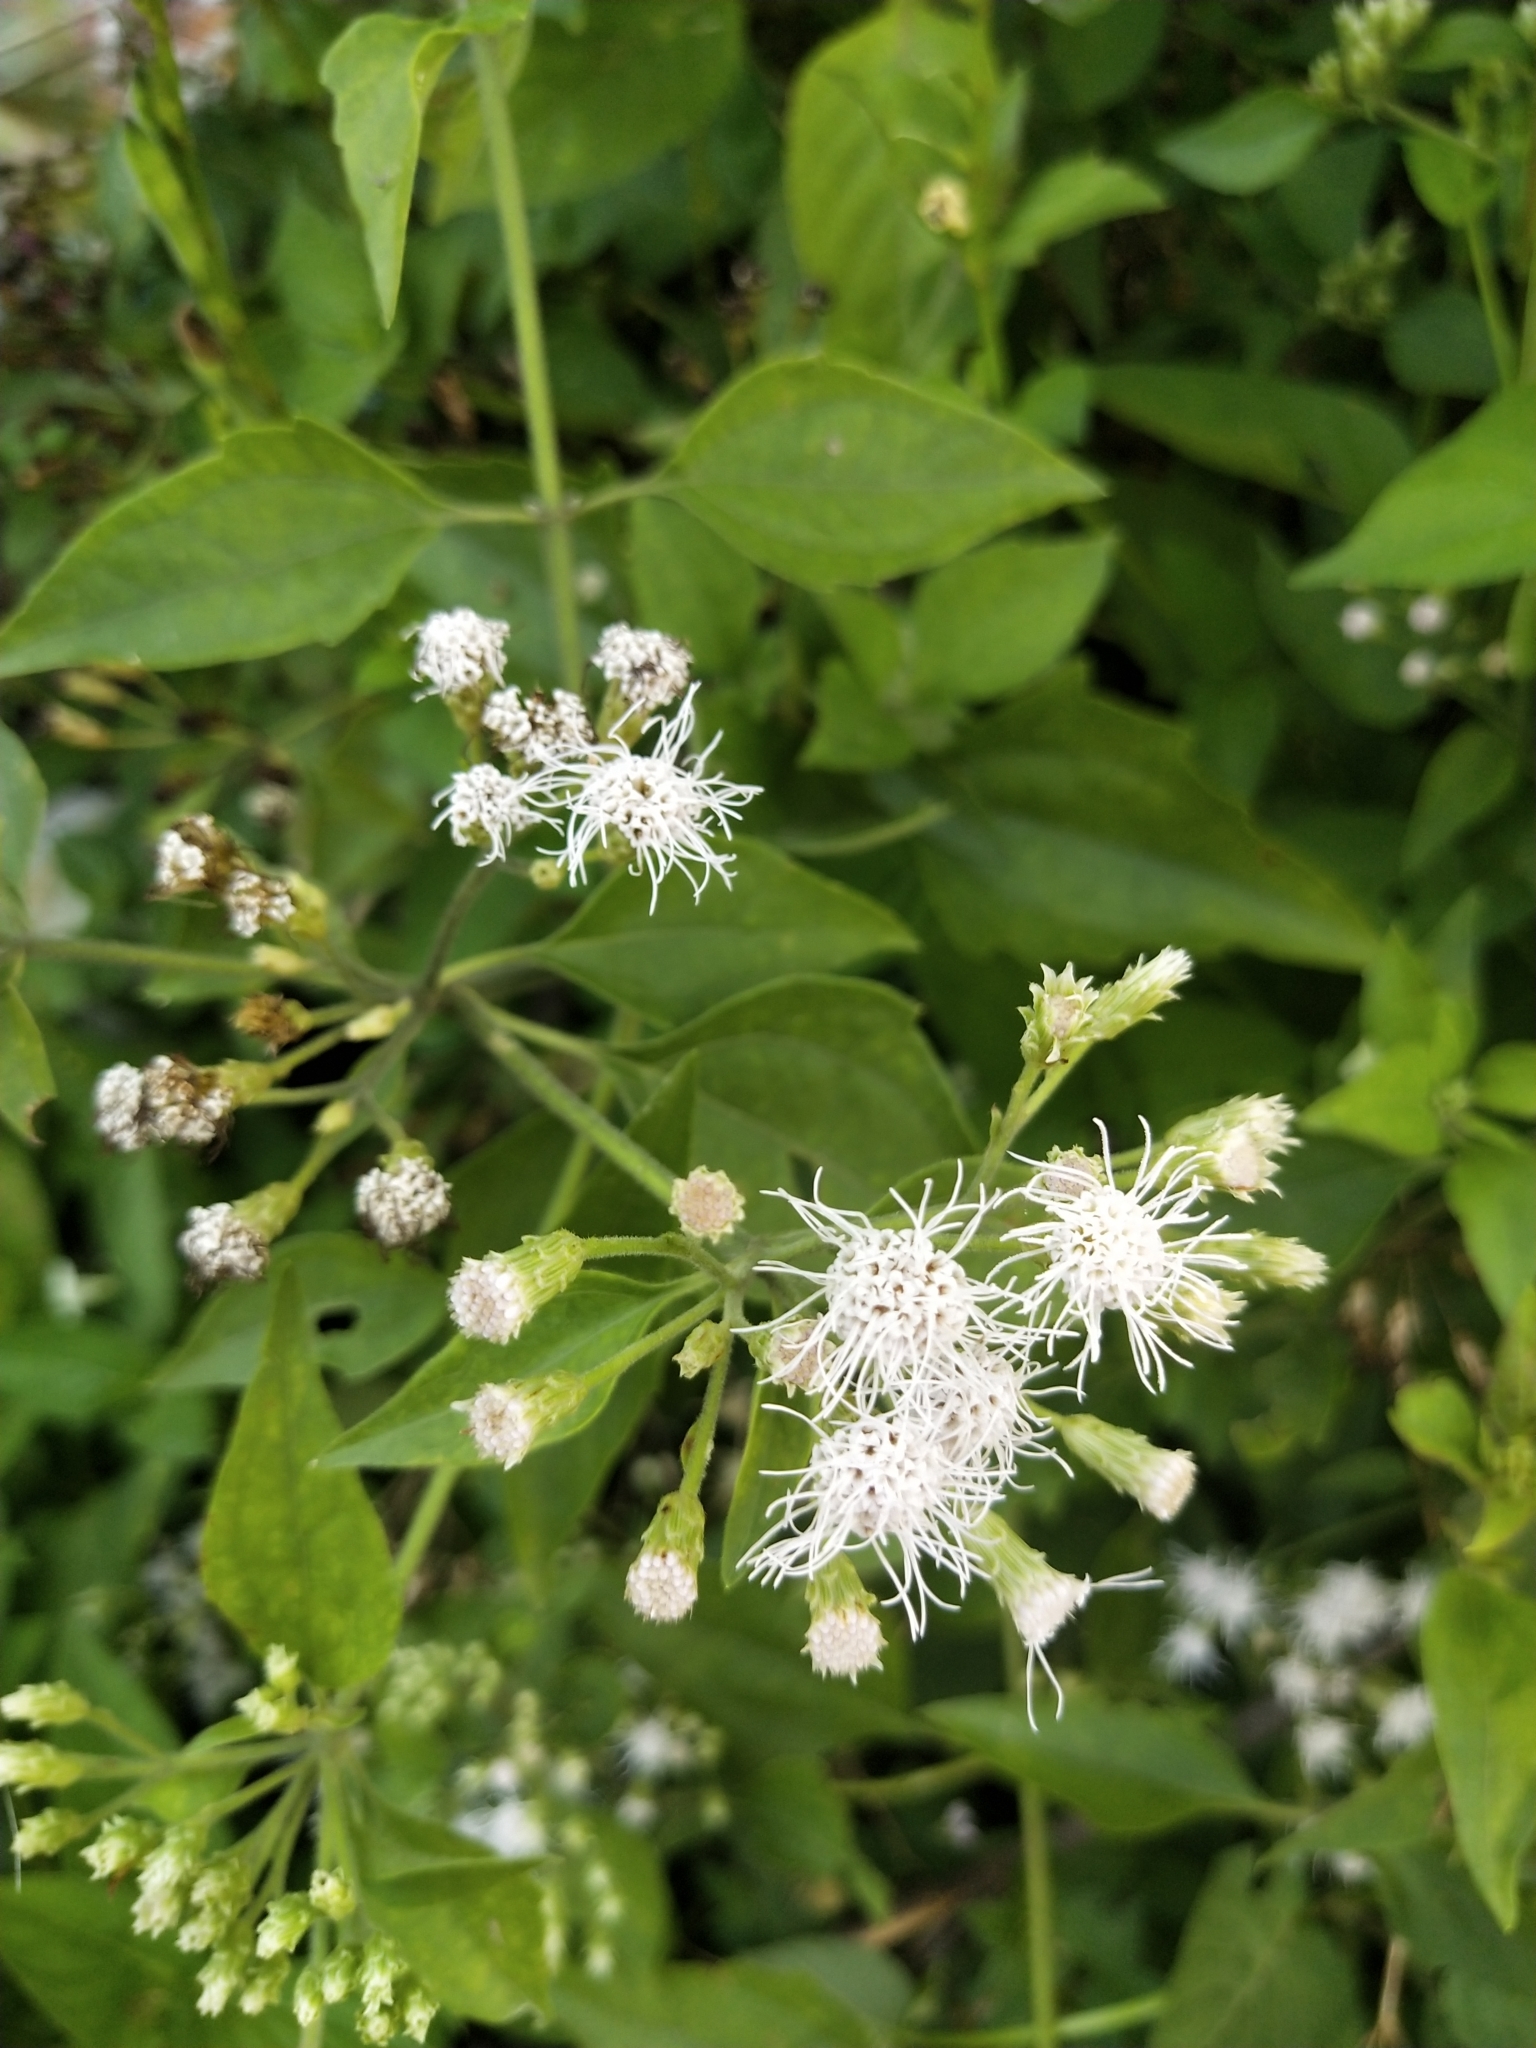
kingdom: Plantae
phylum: Tracheophyta
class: Magnoliopsida
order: Asterales
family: Asteraceae
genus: Chromolaena
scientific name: Chromolaena odorata
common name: Siamweed
